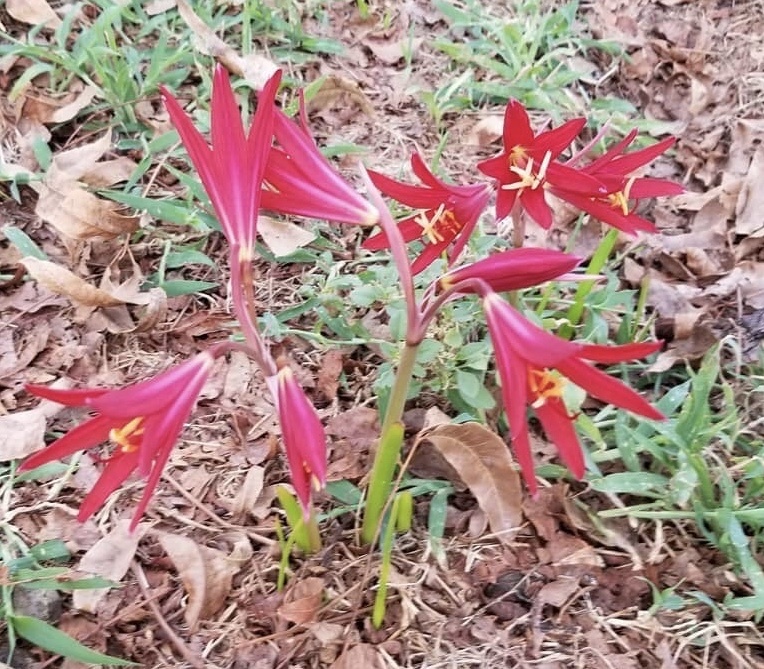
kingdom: Plantae
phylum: Tracheophyta
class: Liliopsida
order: Asparagales
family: Amaryllidaceae
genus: Zephyranthes
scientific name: Zephyranthes bifida
